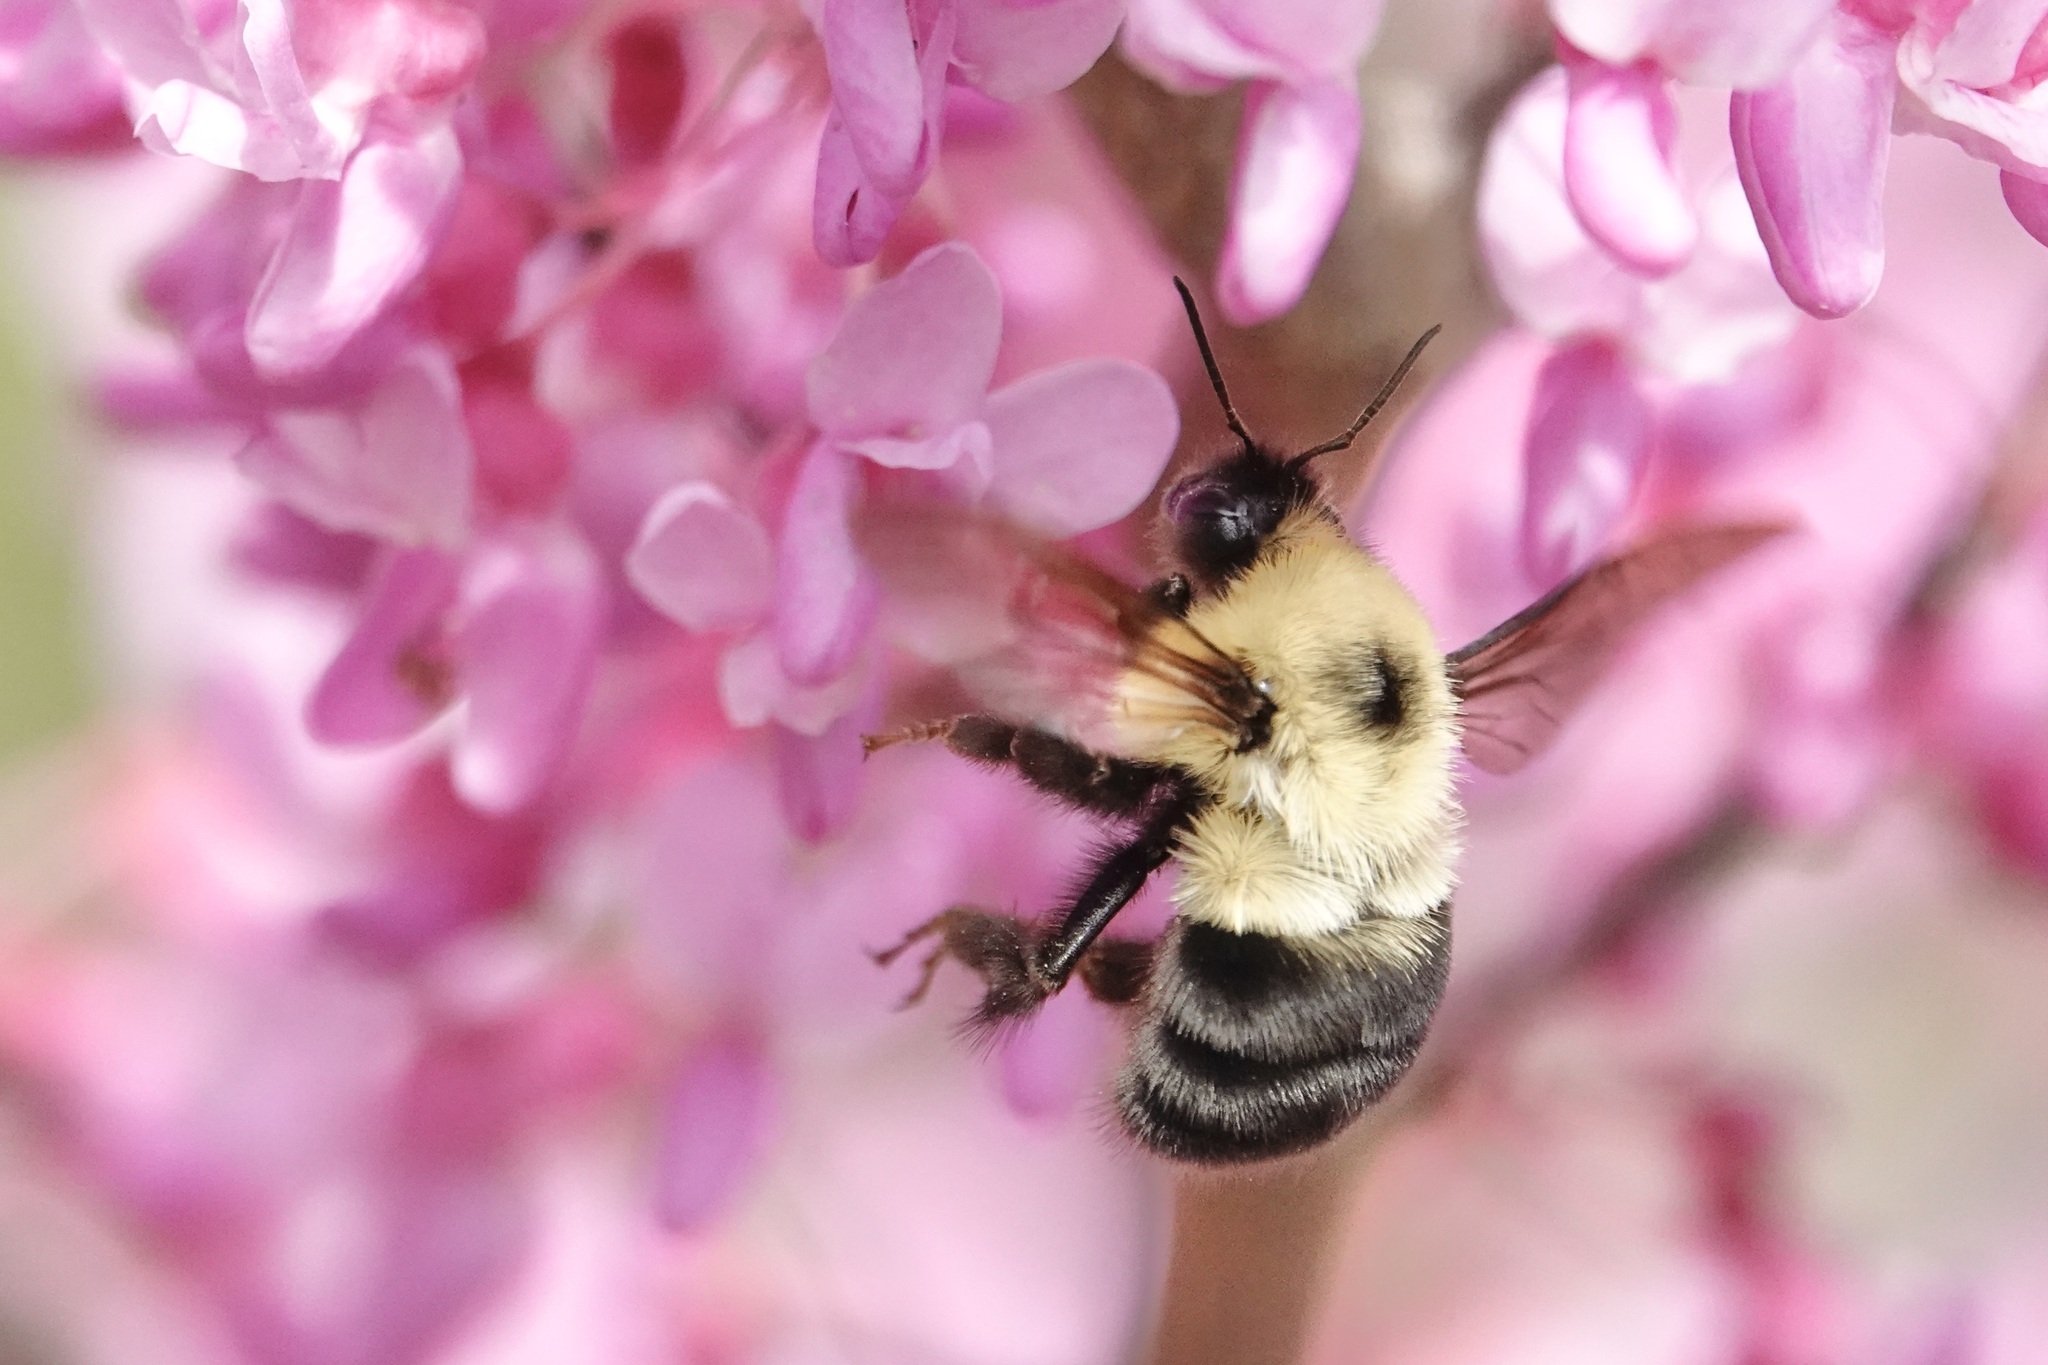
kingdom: Animalia
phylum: Arthropoda
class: Insecta
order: Hymenoptera
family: Apidae
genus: Bombus
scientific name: Bombus bimaculatus
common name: Two-spotted bumble bee
